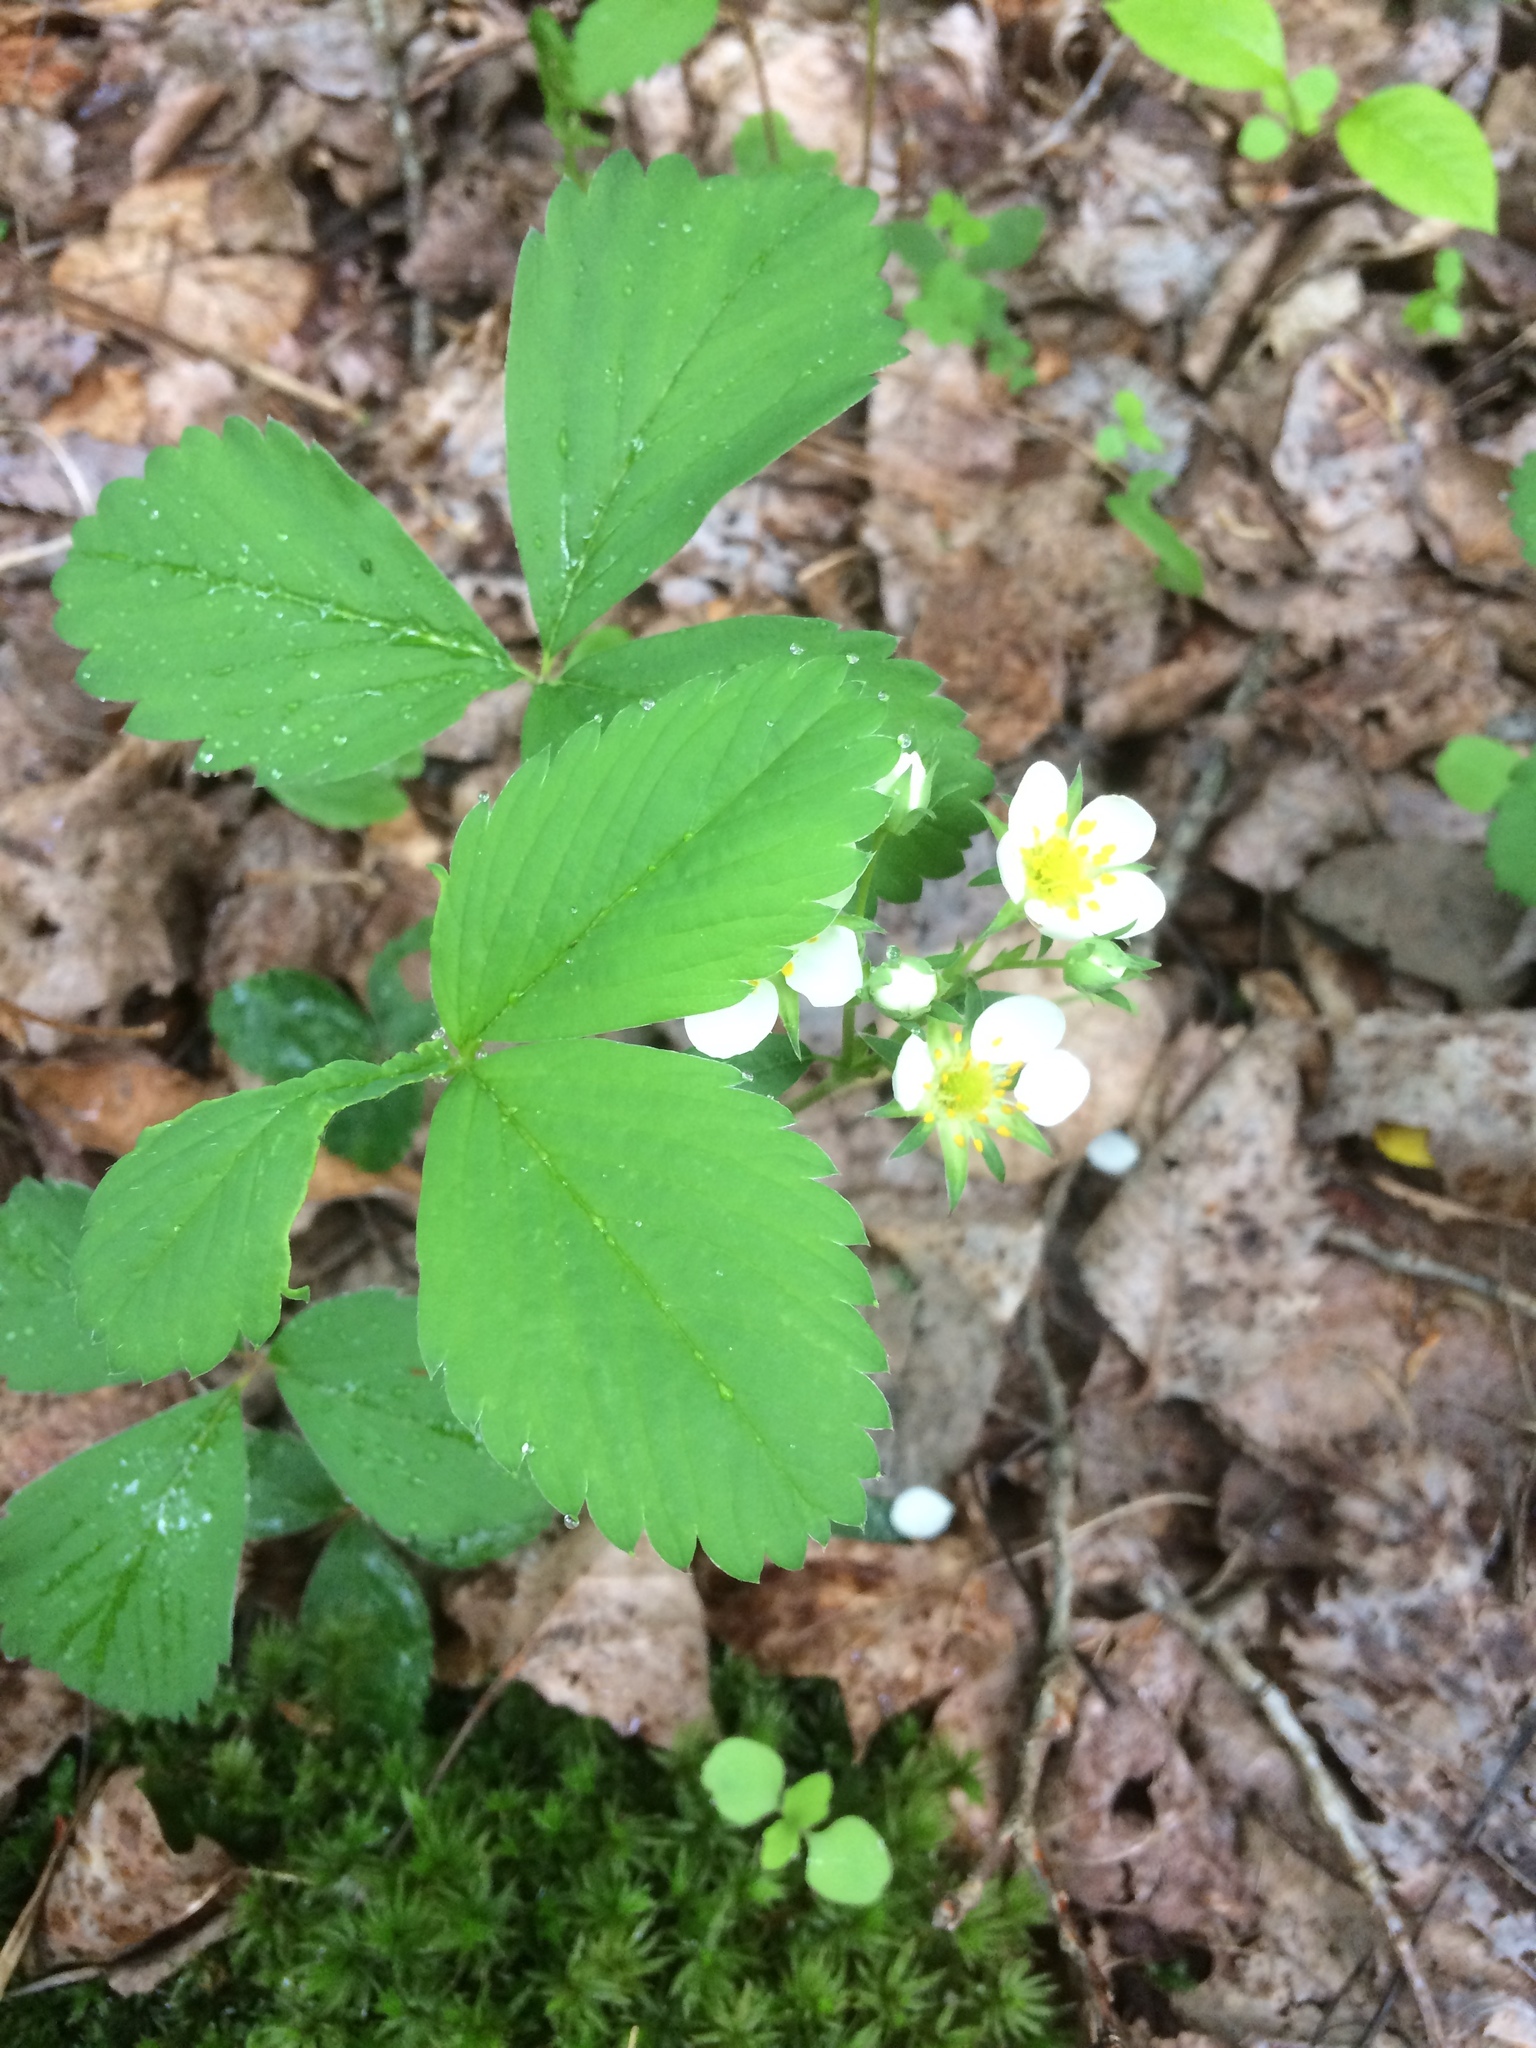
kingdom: Plantae
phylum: Tracheophyta
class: Magnoliopsida
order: Rosales
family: Rosaceae
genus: Fragaria
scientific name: Fragaria virginiana
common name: Thickleaved wild strawberry
